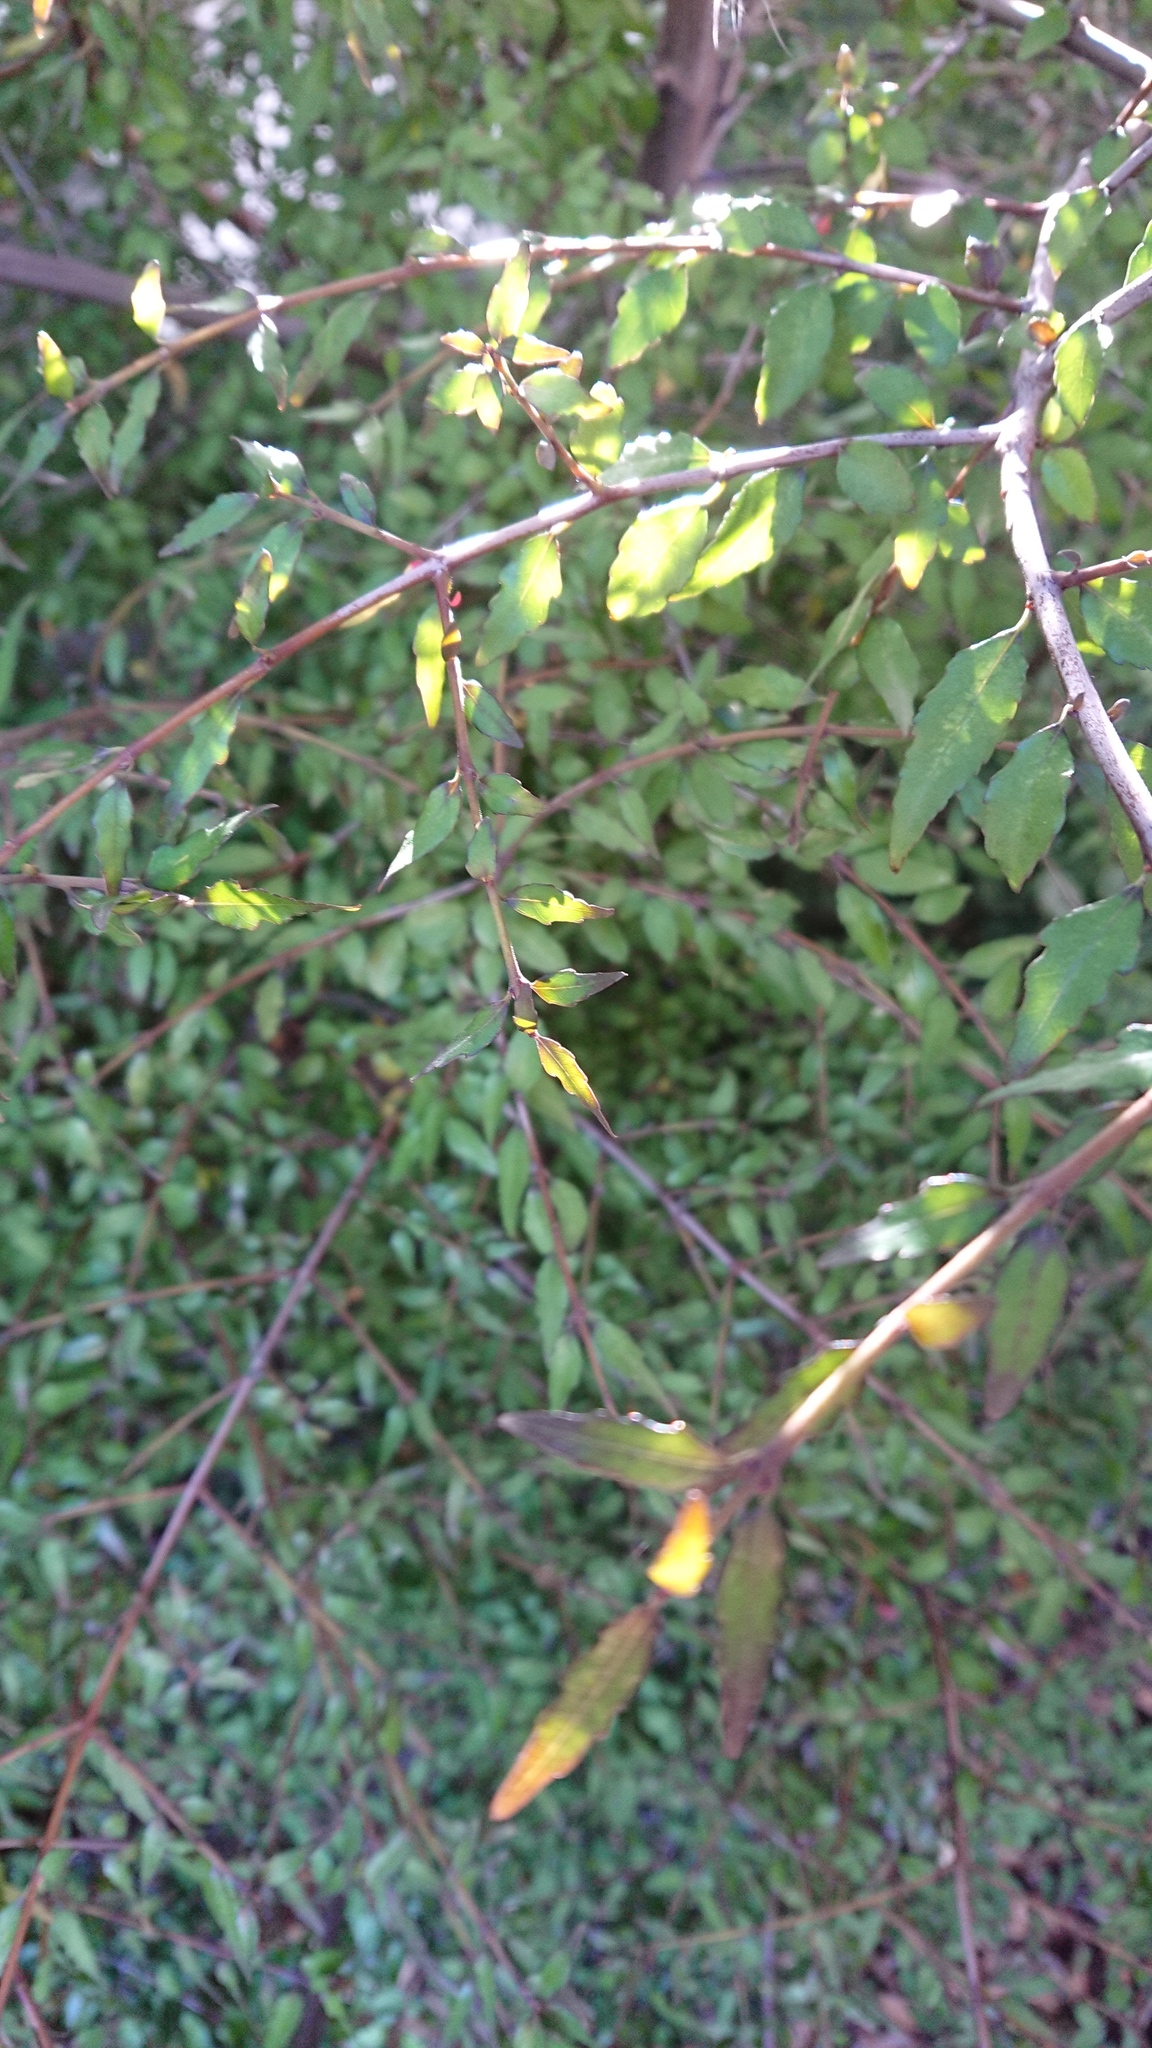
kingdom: Plantae
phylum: Tracheophyta
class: Magnoliopsida
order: Oxalidales
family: Elaeocarpaceae
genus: Aristotelia
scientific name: Aristotelia fruticosa
